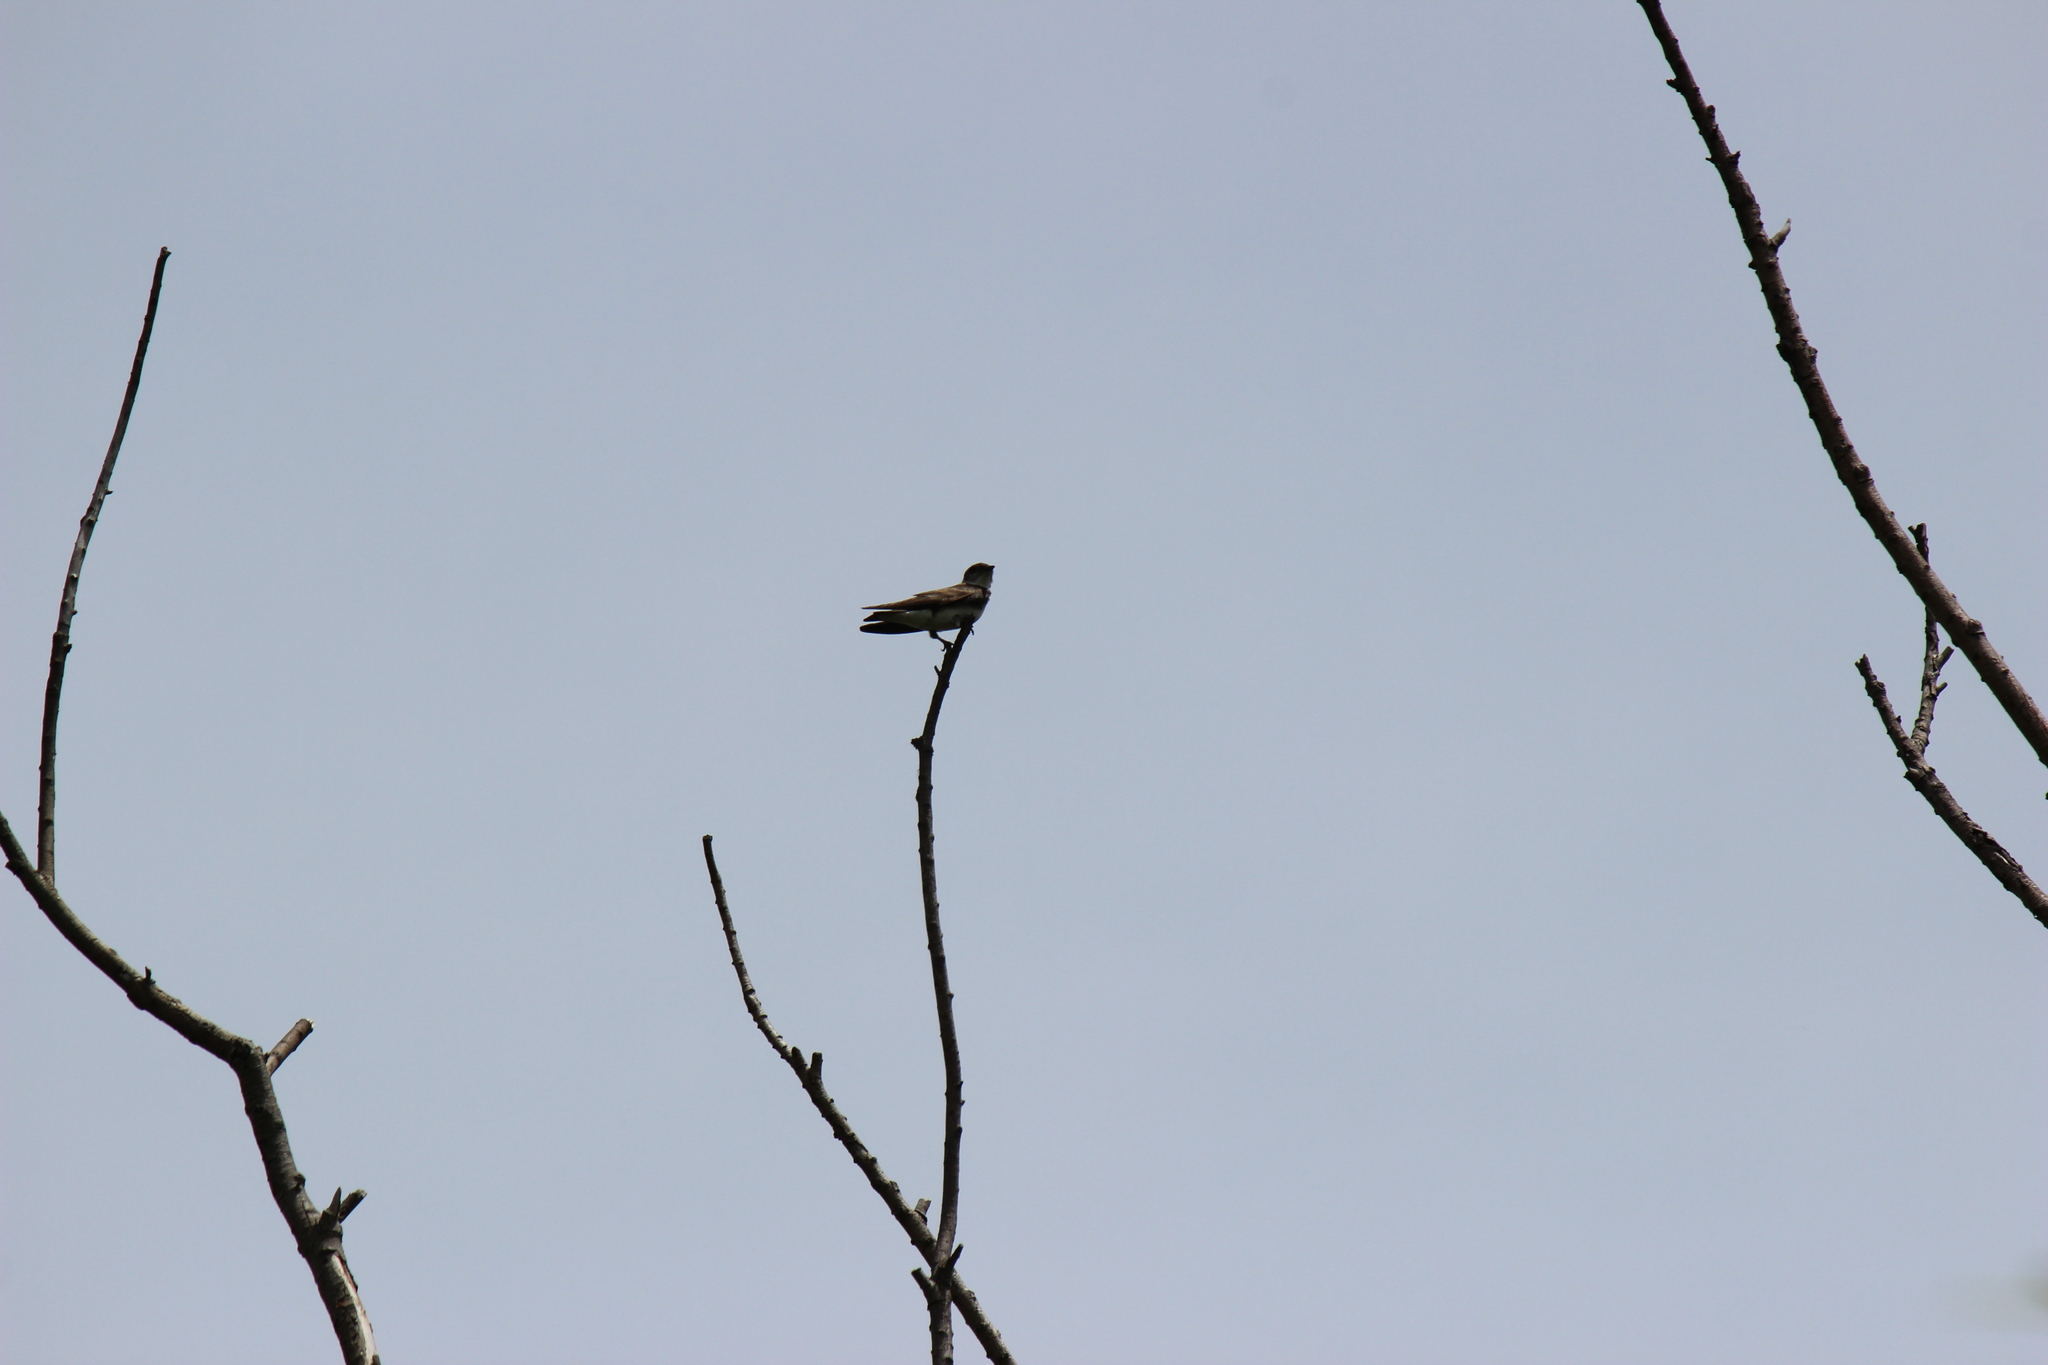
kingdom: Animalia
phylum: Chordata
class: Aves
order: Passeriformes
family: Hirundinidae
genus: Progne
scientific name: Progne tapera
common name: Brown-chested martin
